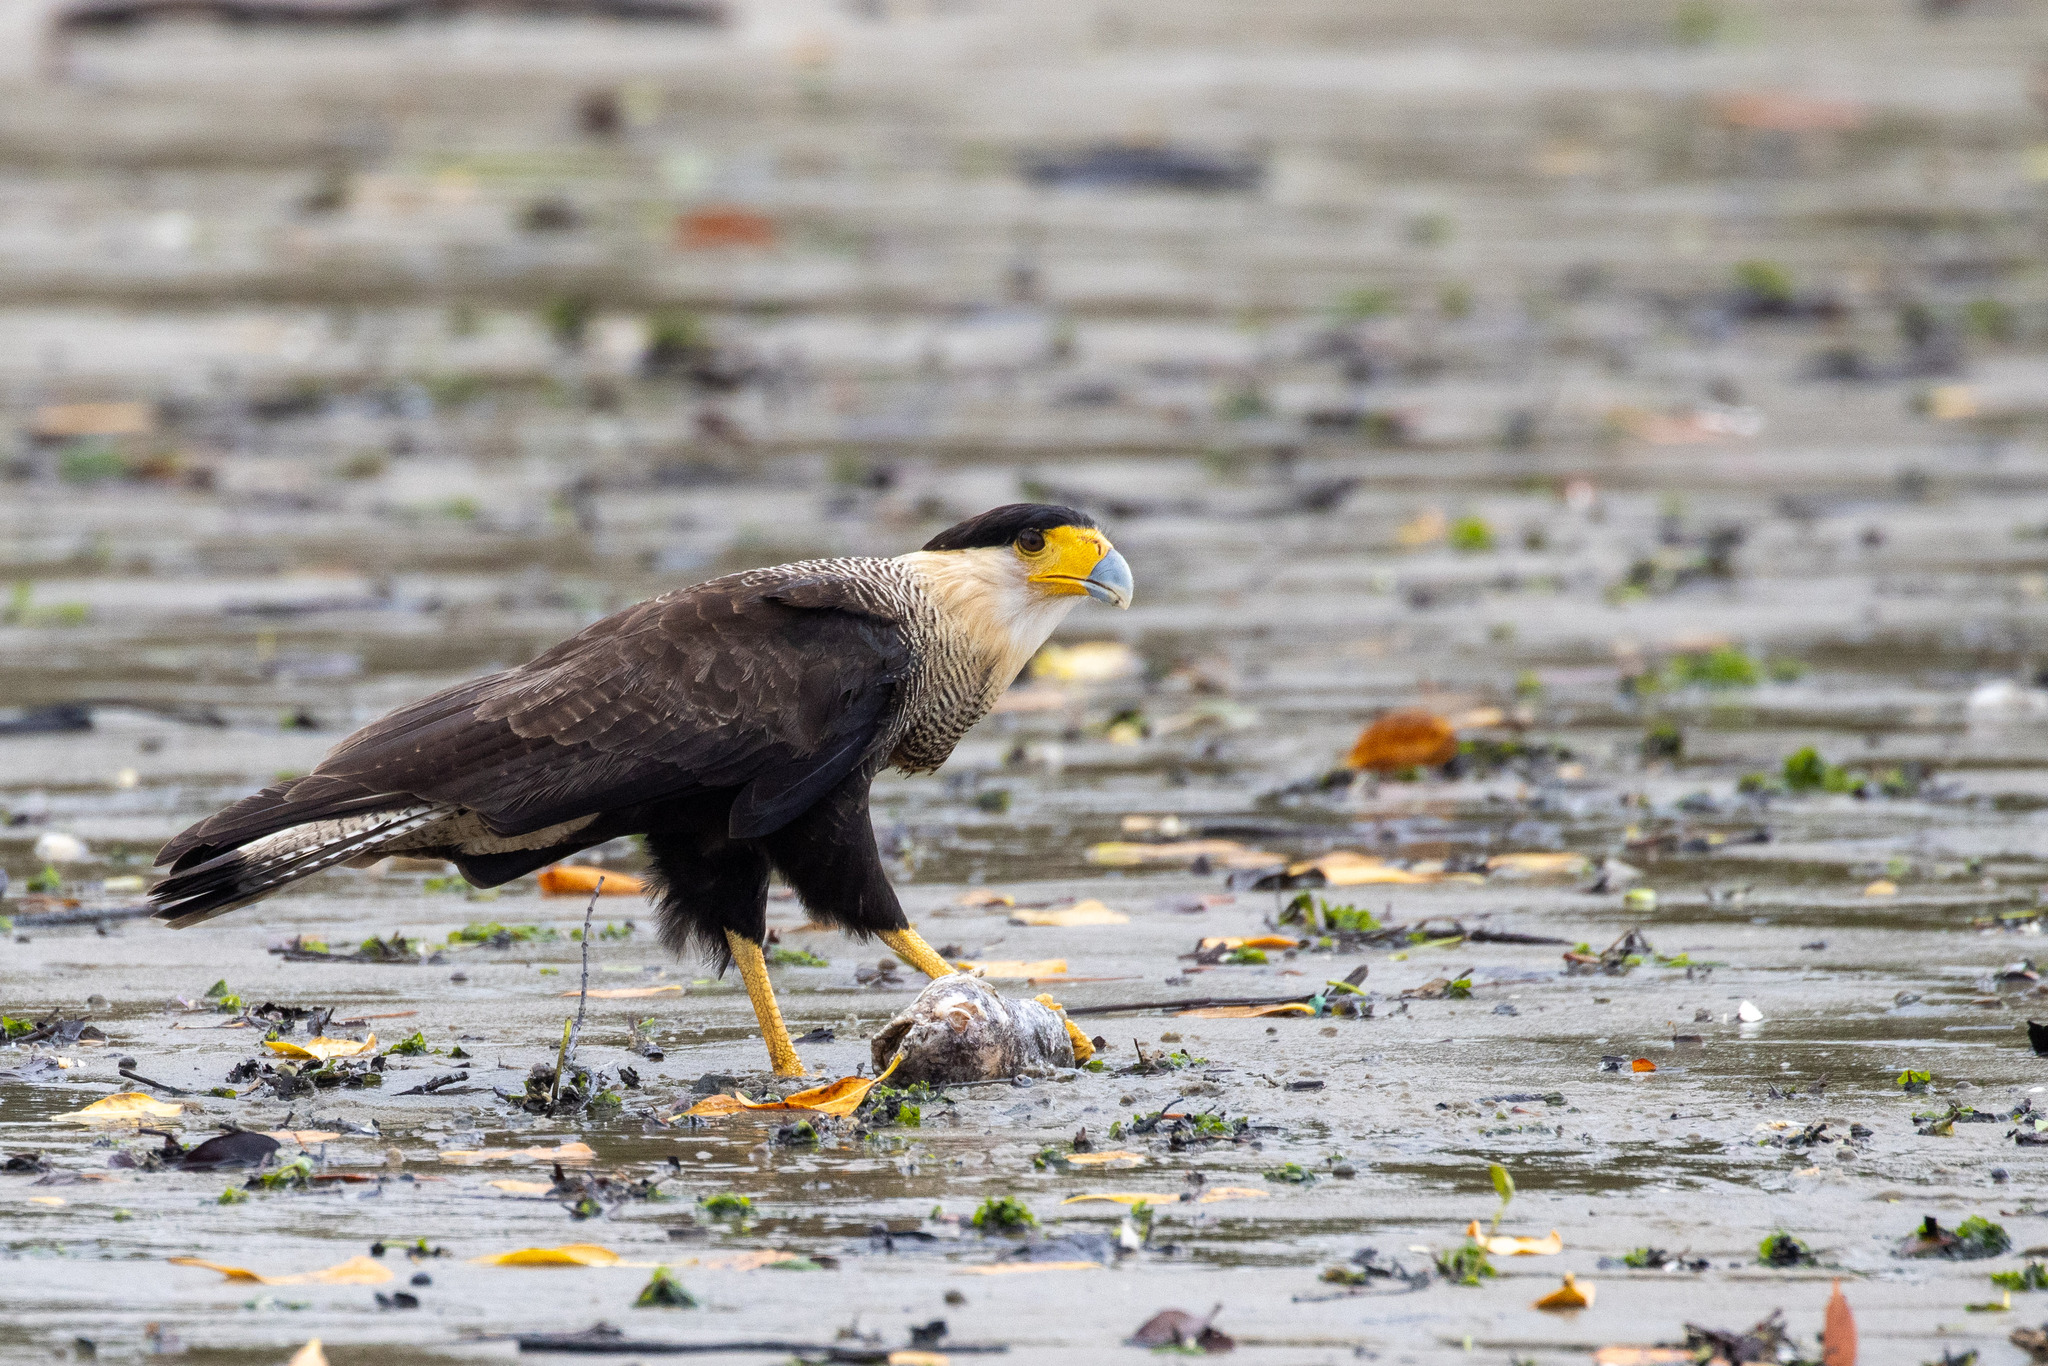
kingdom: Animalia
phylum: Chordata
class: Aves
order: Falconiformes
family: Falconidae
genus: Caracara
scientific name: Caracara plancus
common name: Southern caracara
